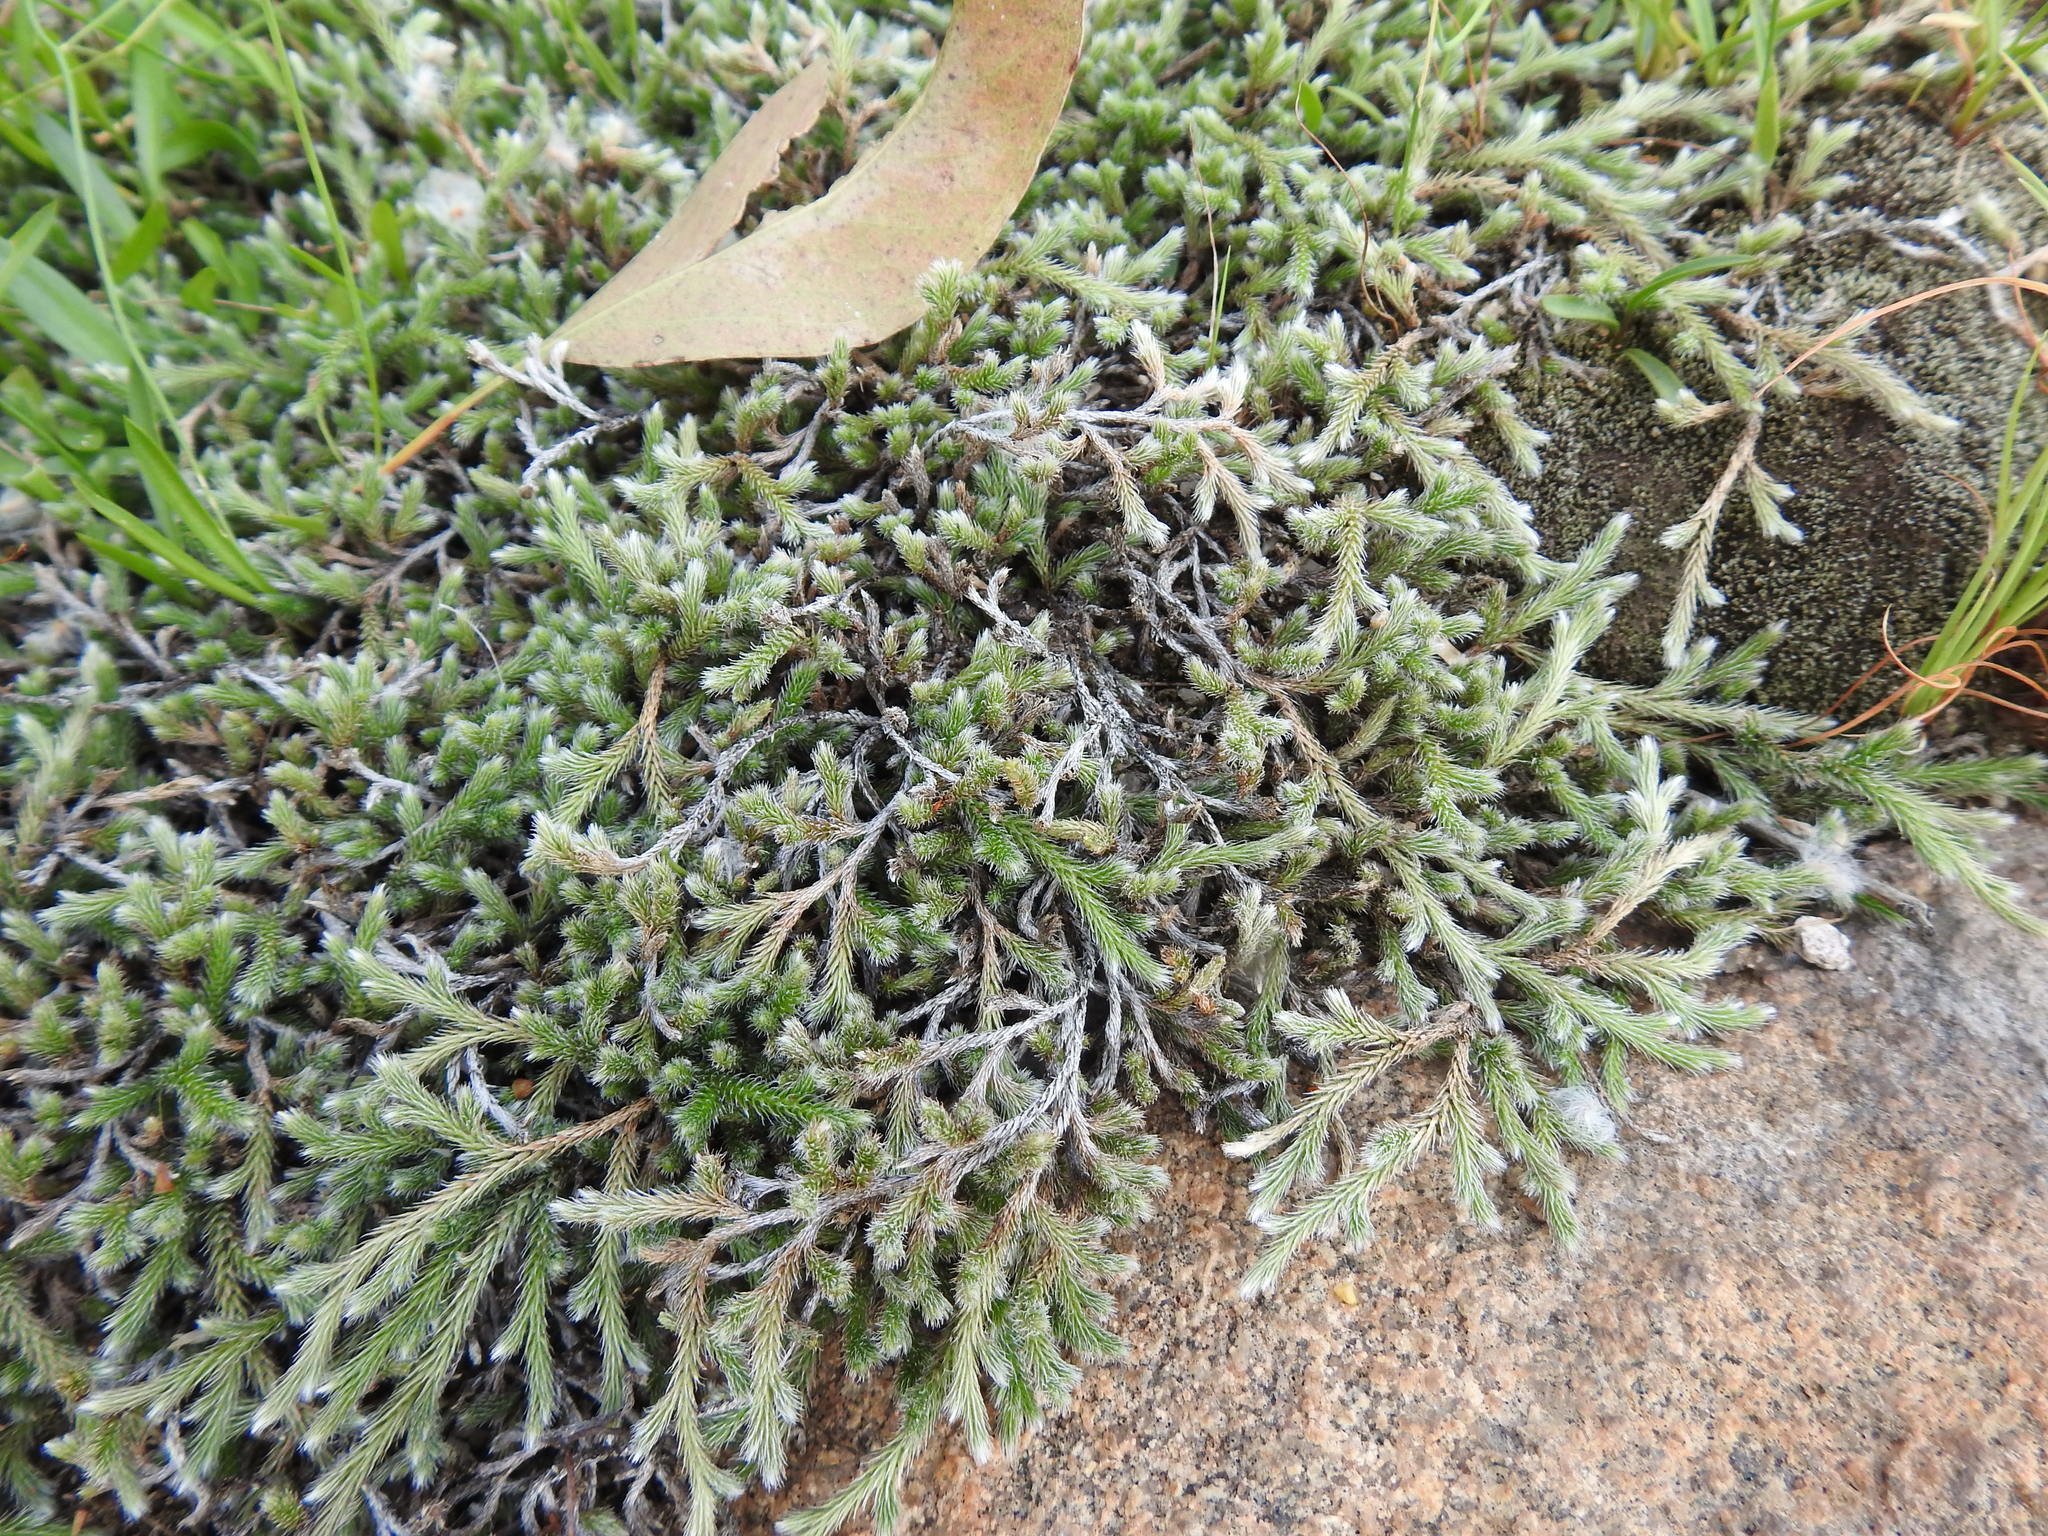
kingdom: Plantae
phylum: Tracheophyta
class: Lycopodiopsida
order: Selaginellales
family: Selaginellaceae
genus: Selaginella
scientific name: Selaginella dregei
